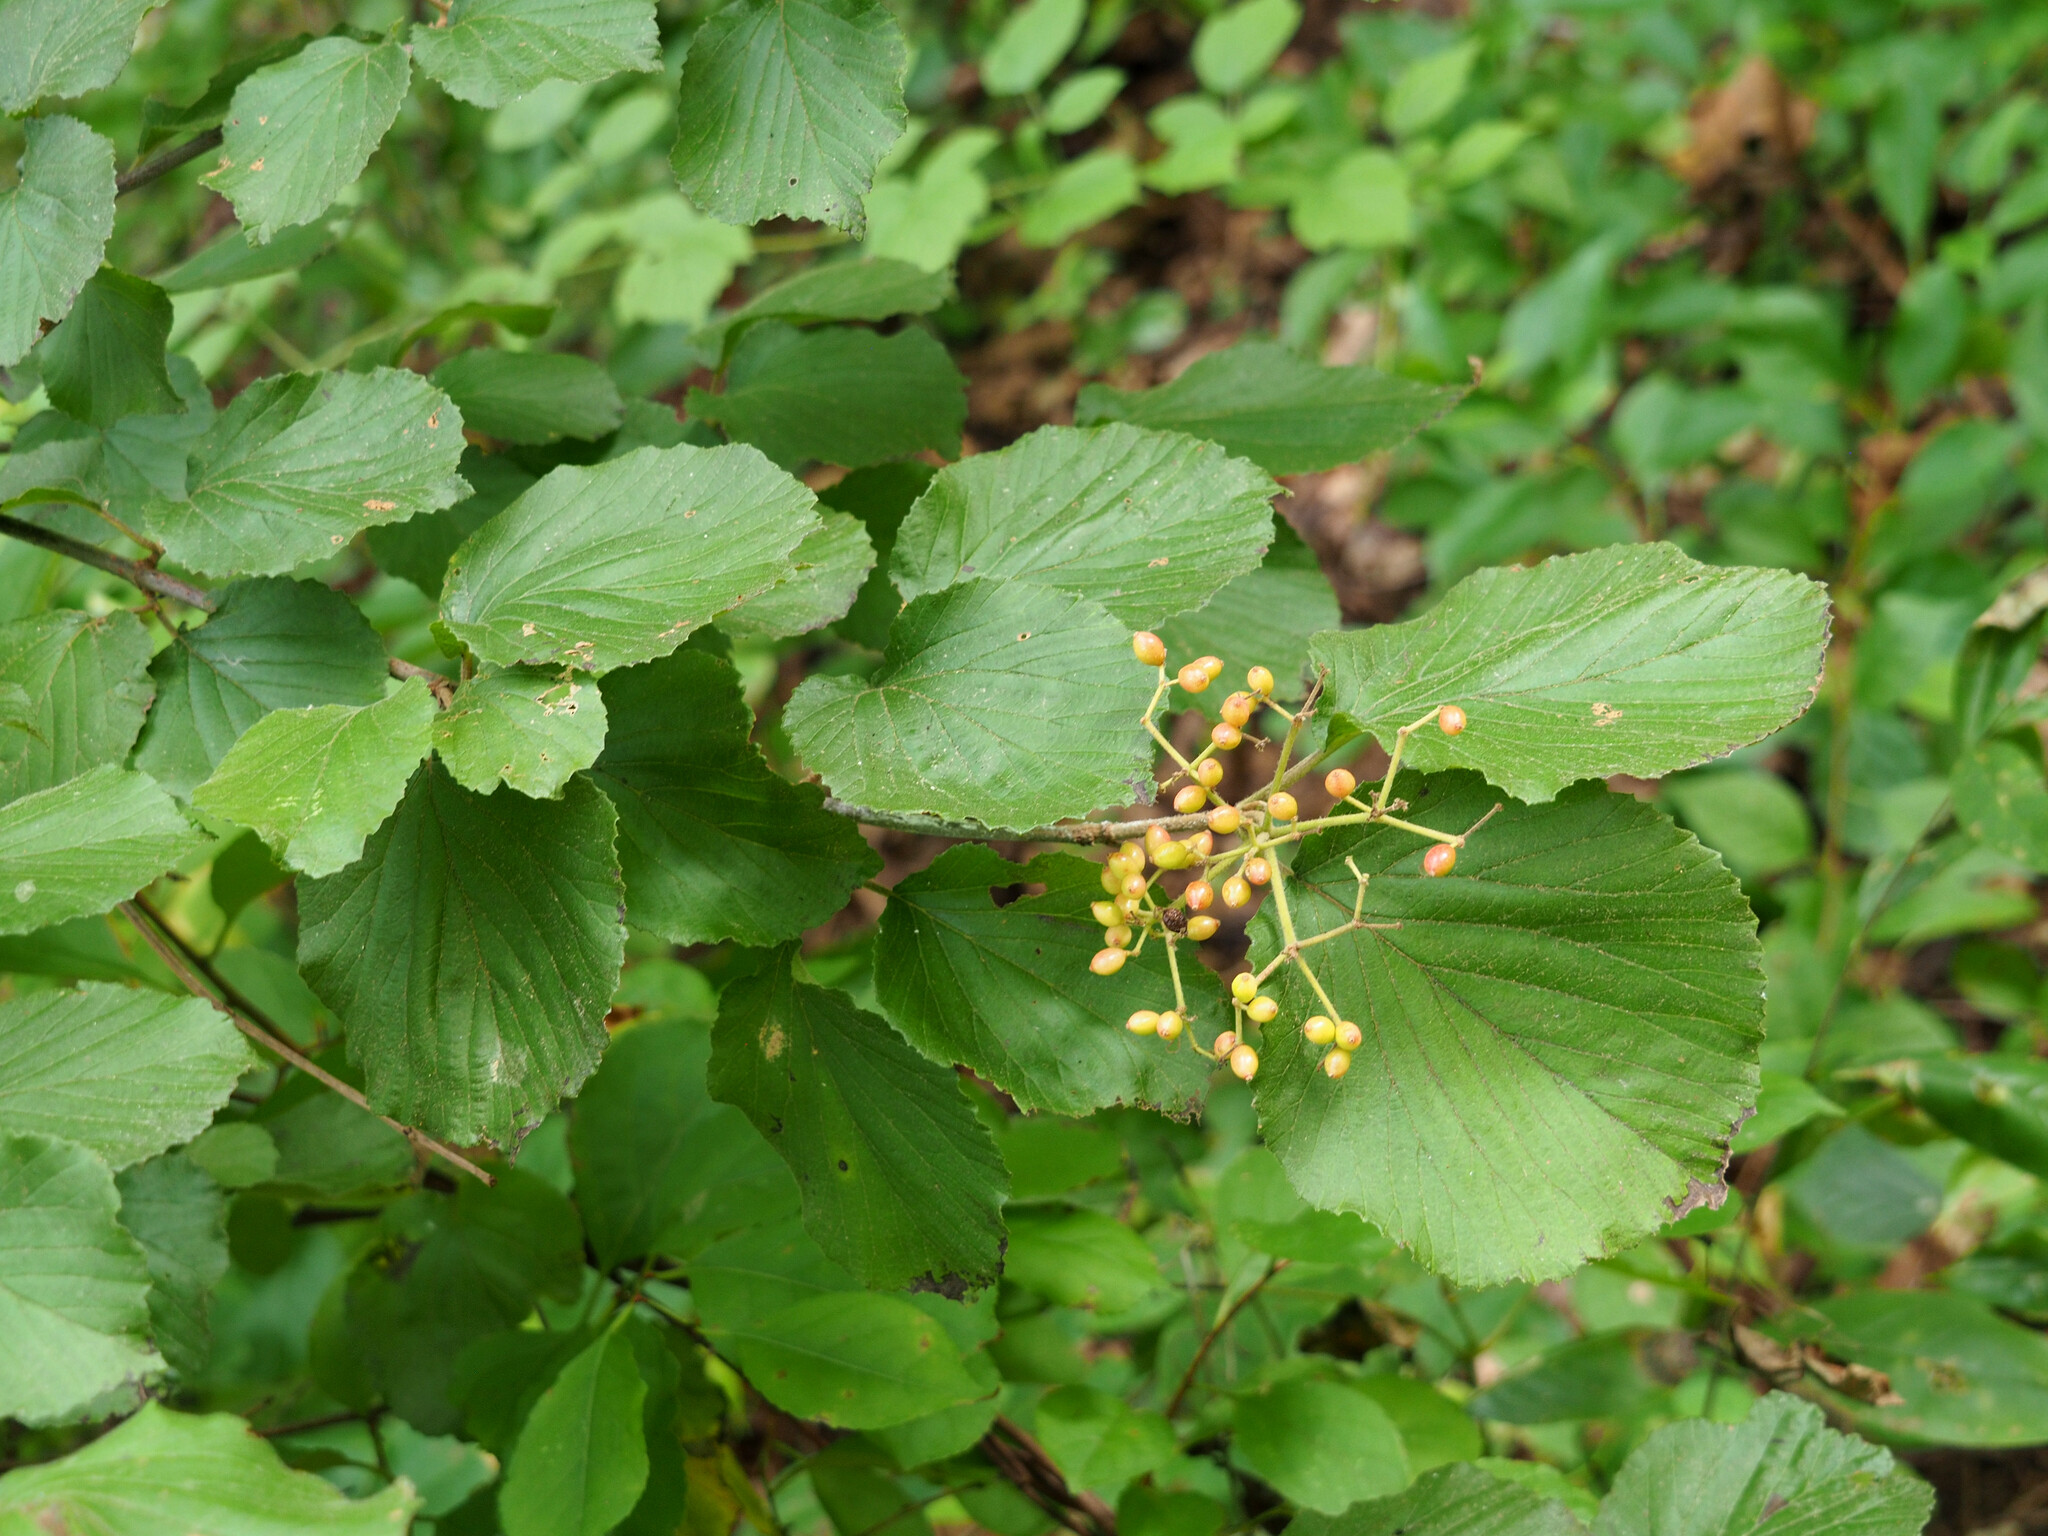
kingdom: Plantae
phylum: Tracheophyta
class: Magnoliopsida
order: Dipsacales
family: Viburnaceae
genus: Viburnum
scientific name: Viburnum dilatatum
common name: Linden arrowwood
